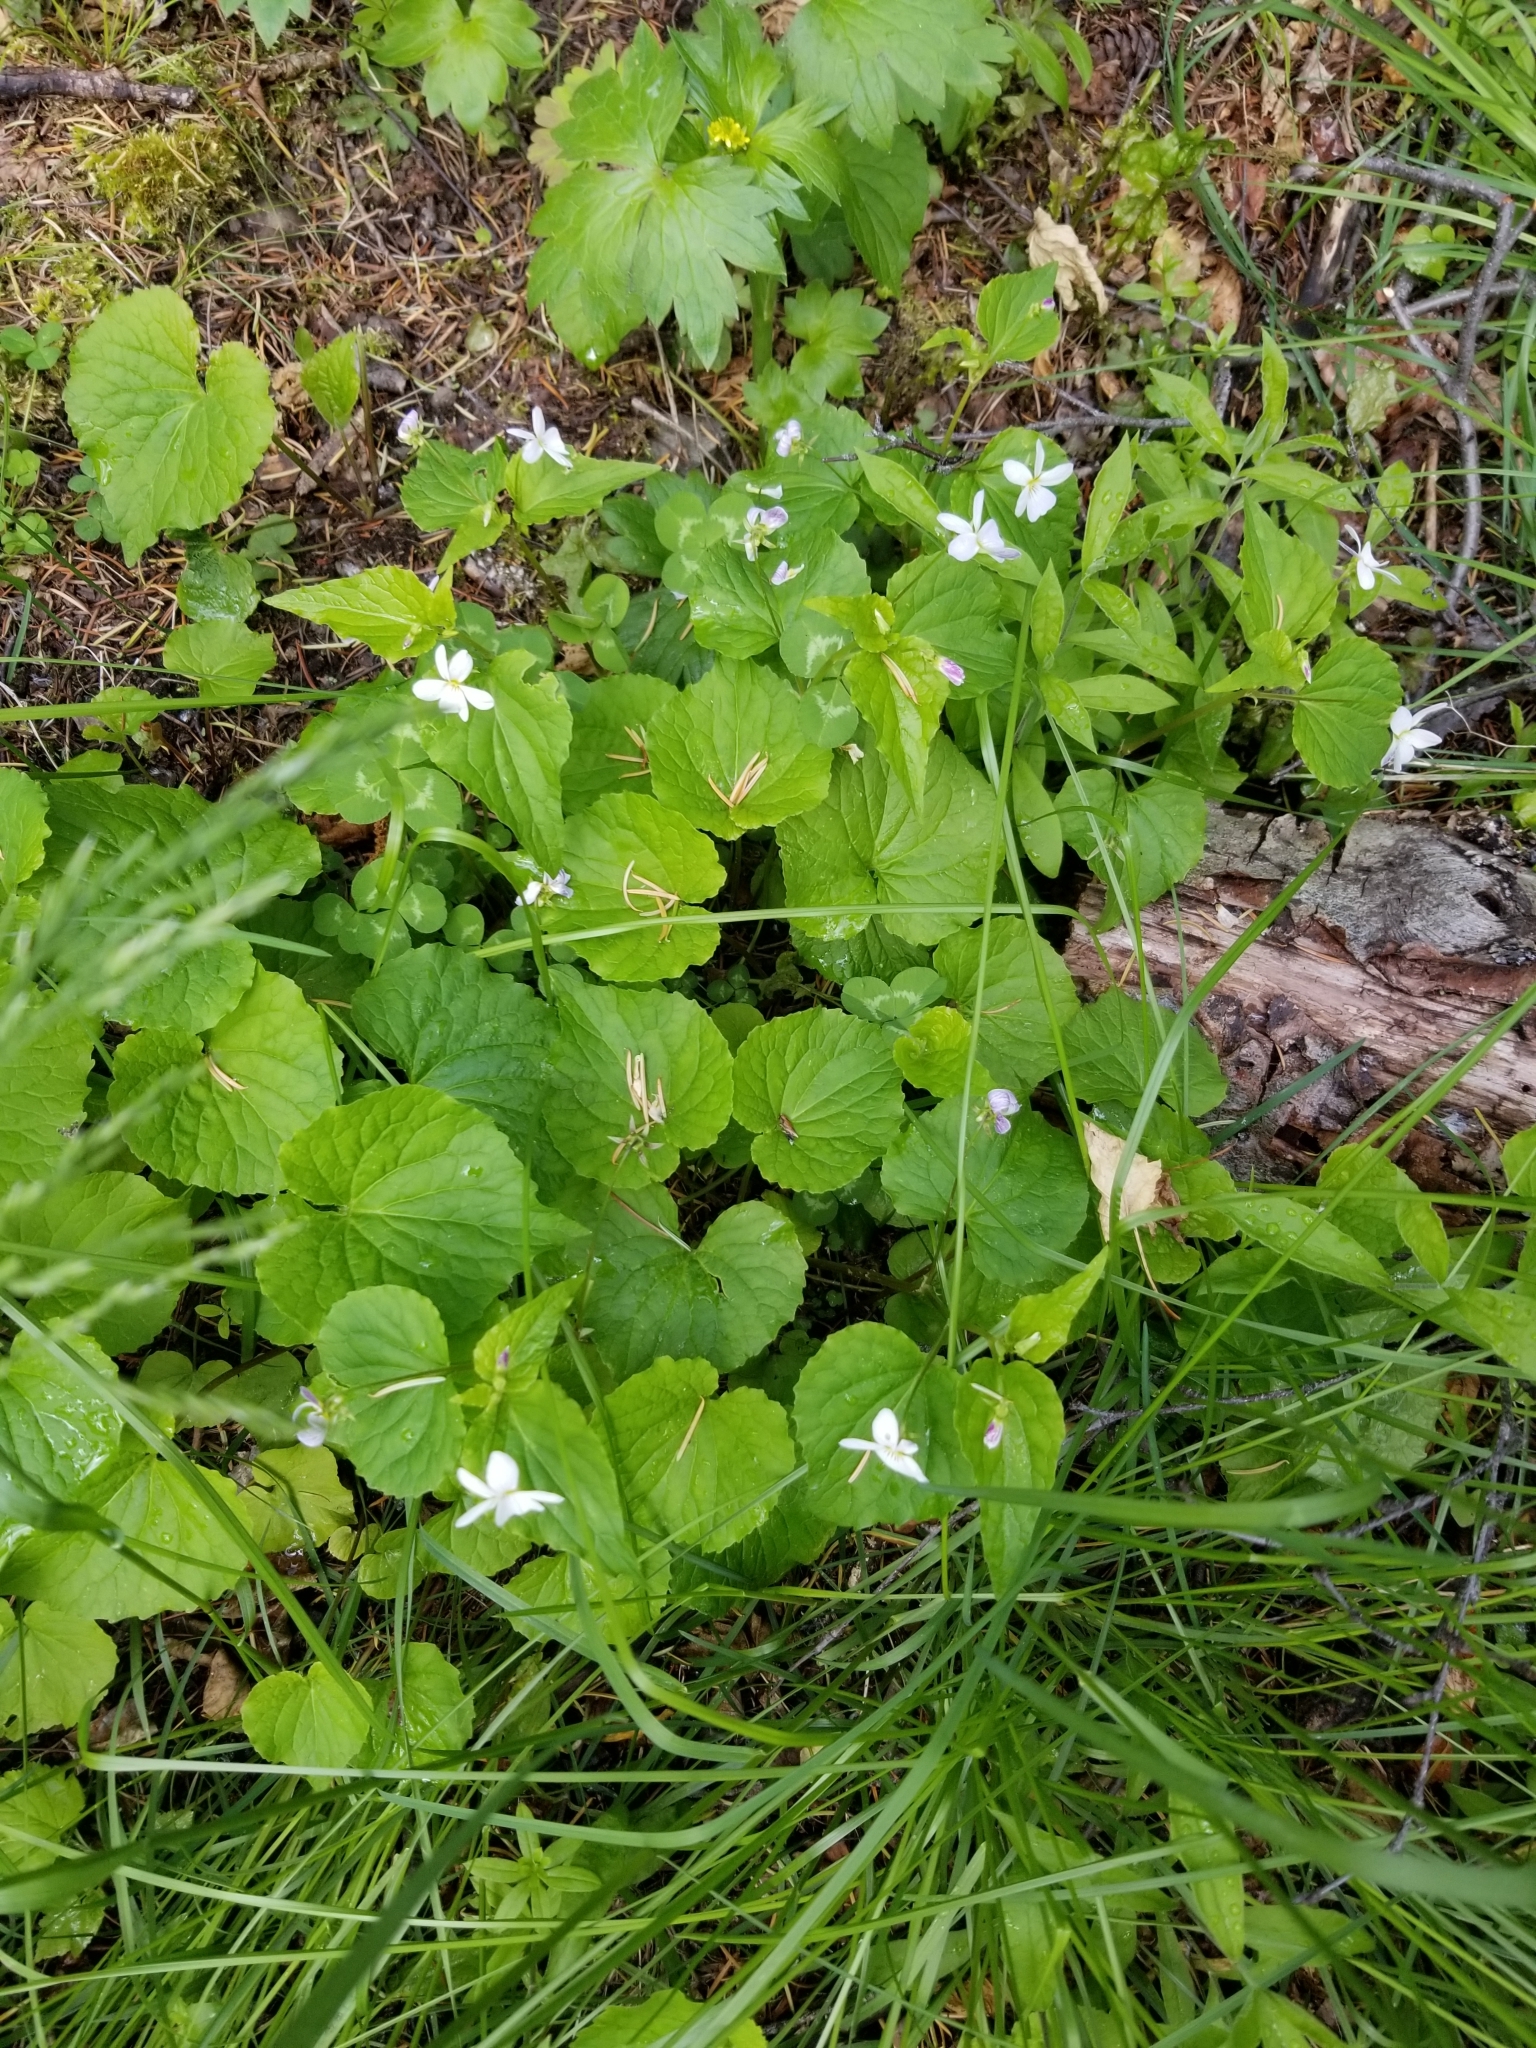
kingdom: Plantae
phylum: Tracheophyta
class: Magnoliopsida
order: Malpighiales
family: Violaceae
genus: Viola
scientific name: Viola canadensis
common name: Canada violet
